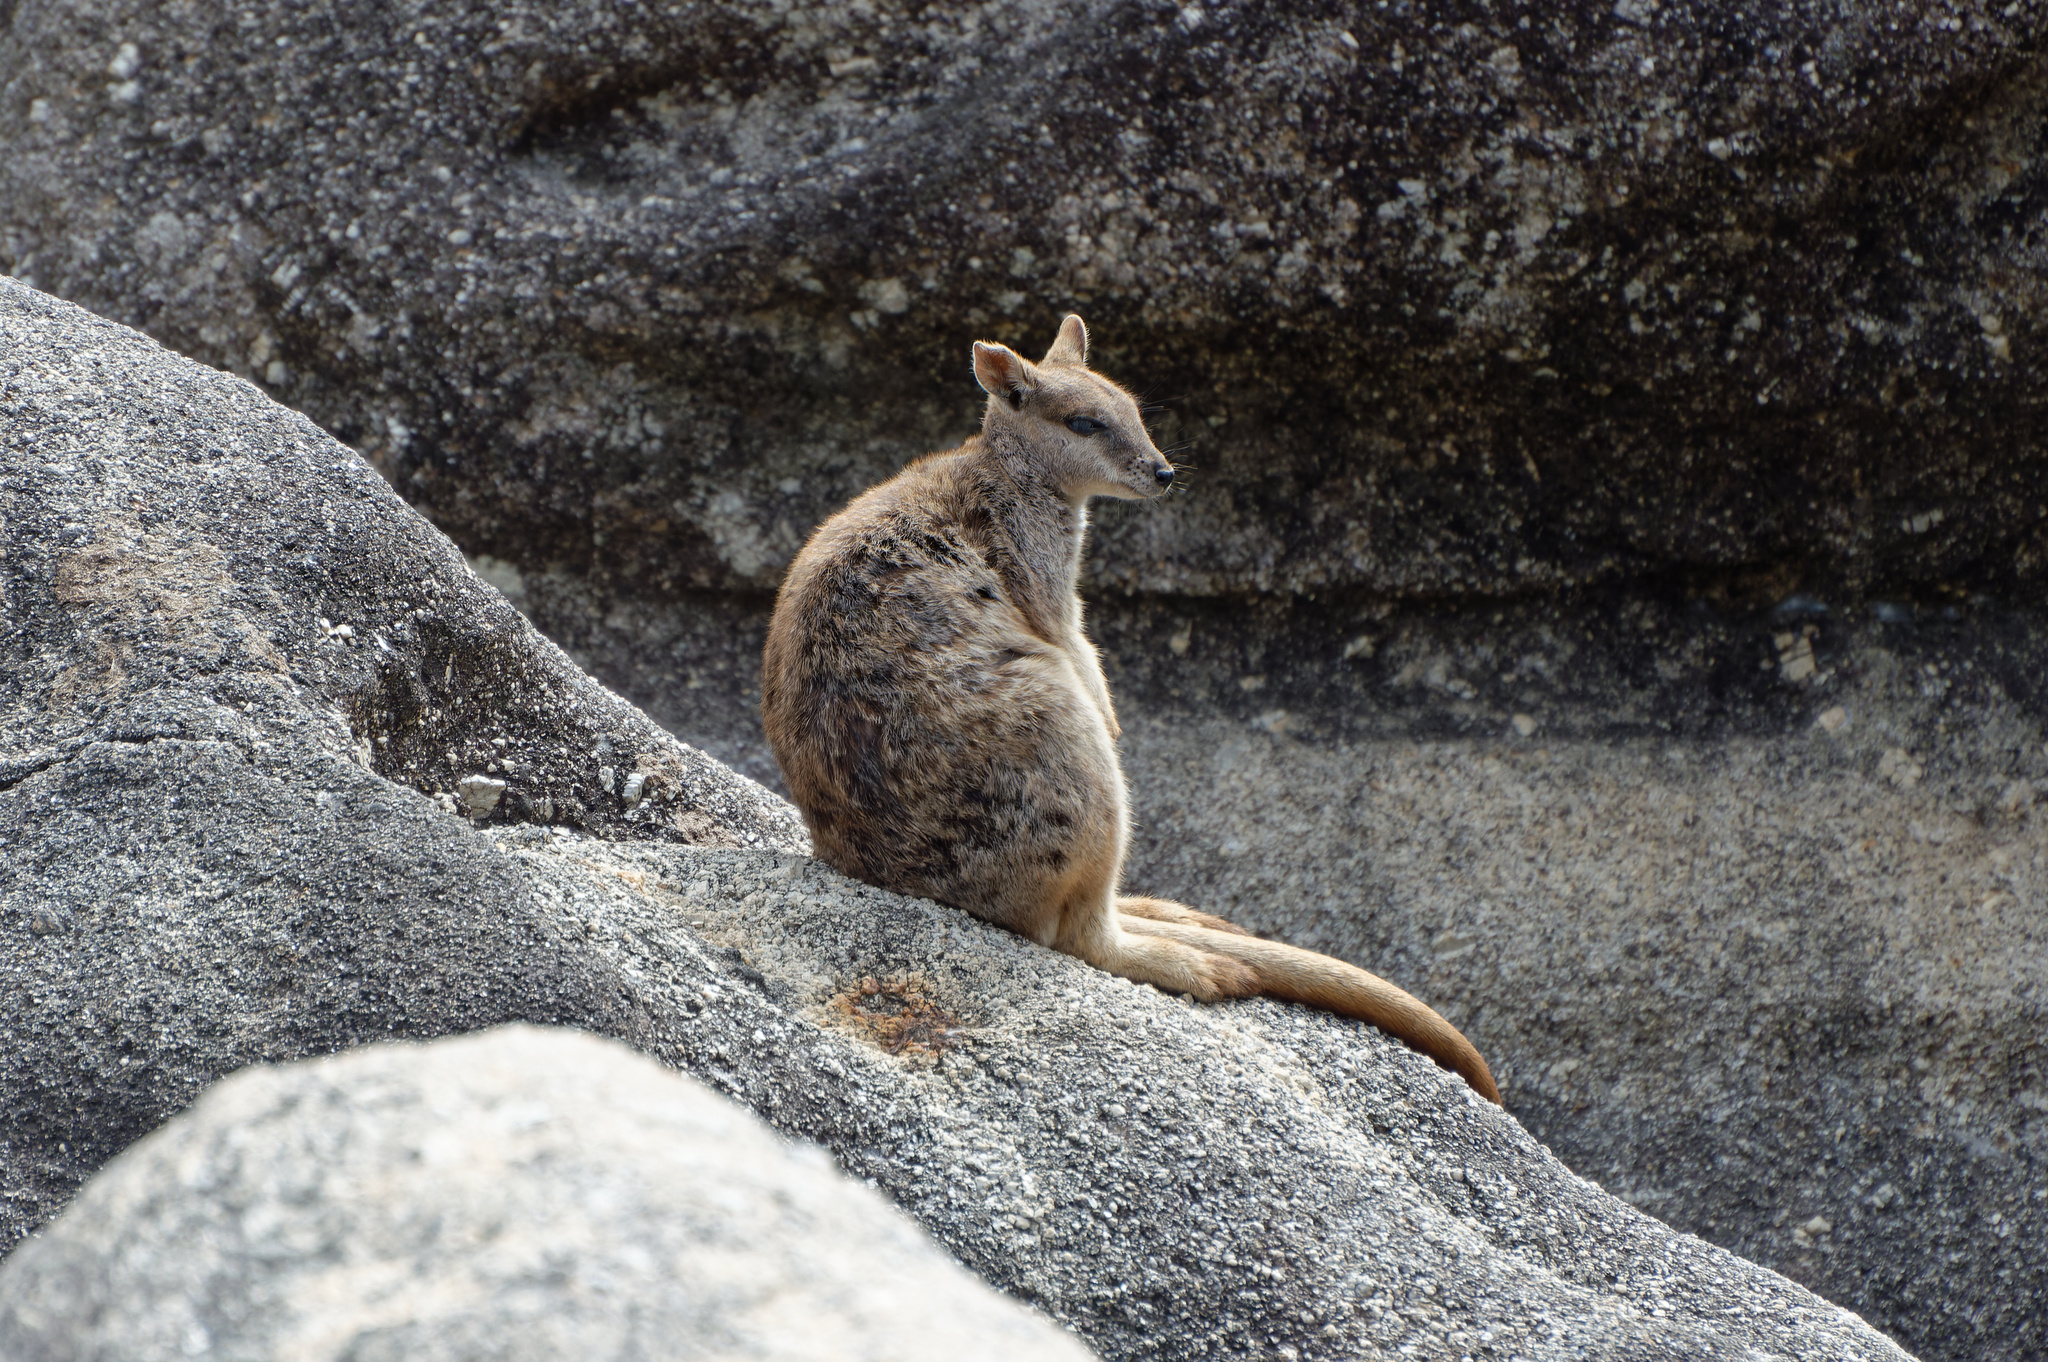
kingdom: Animalia
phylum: Chordata
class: Mammalia
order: Diprotodontia
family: Macropodidae
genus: Petrogale
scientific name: Petrogale mareeba
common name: Mareeba rock-wallaby
